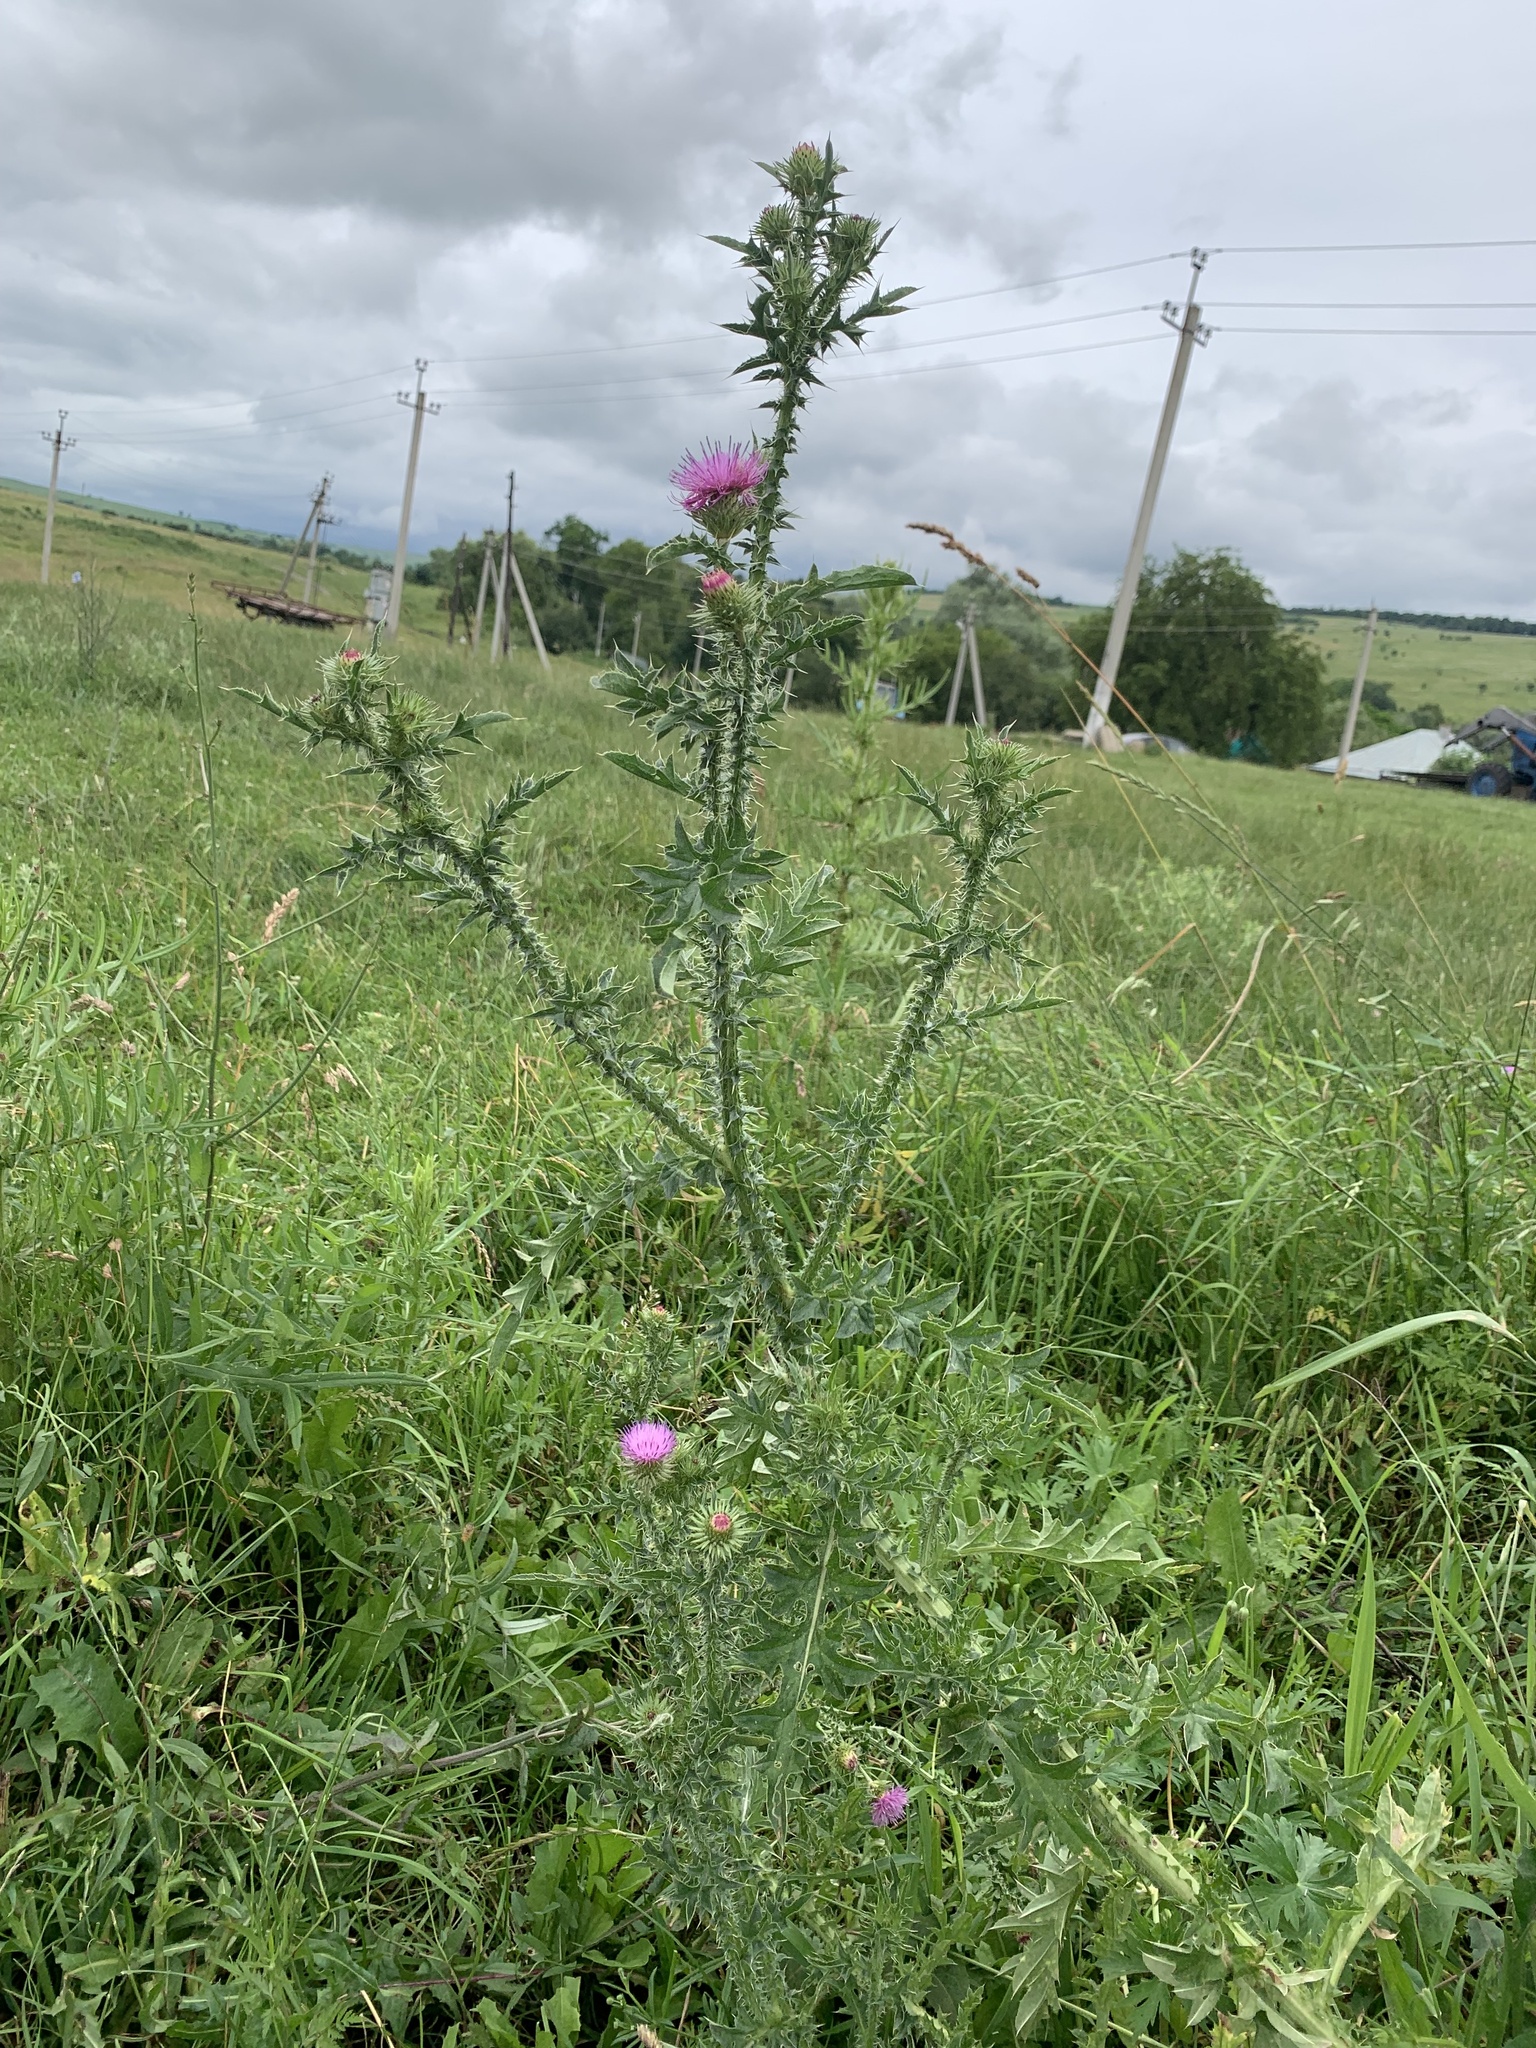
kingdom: Plantae
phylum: Tracheophyta
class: Magnoliopsida
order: Asterales
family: Asteraceae
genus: Carduus
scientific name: Carduus acanthoides
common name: Plumeless thistle
